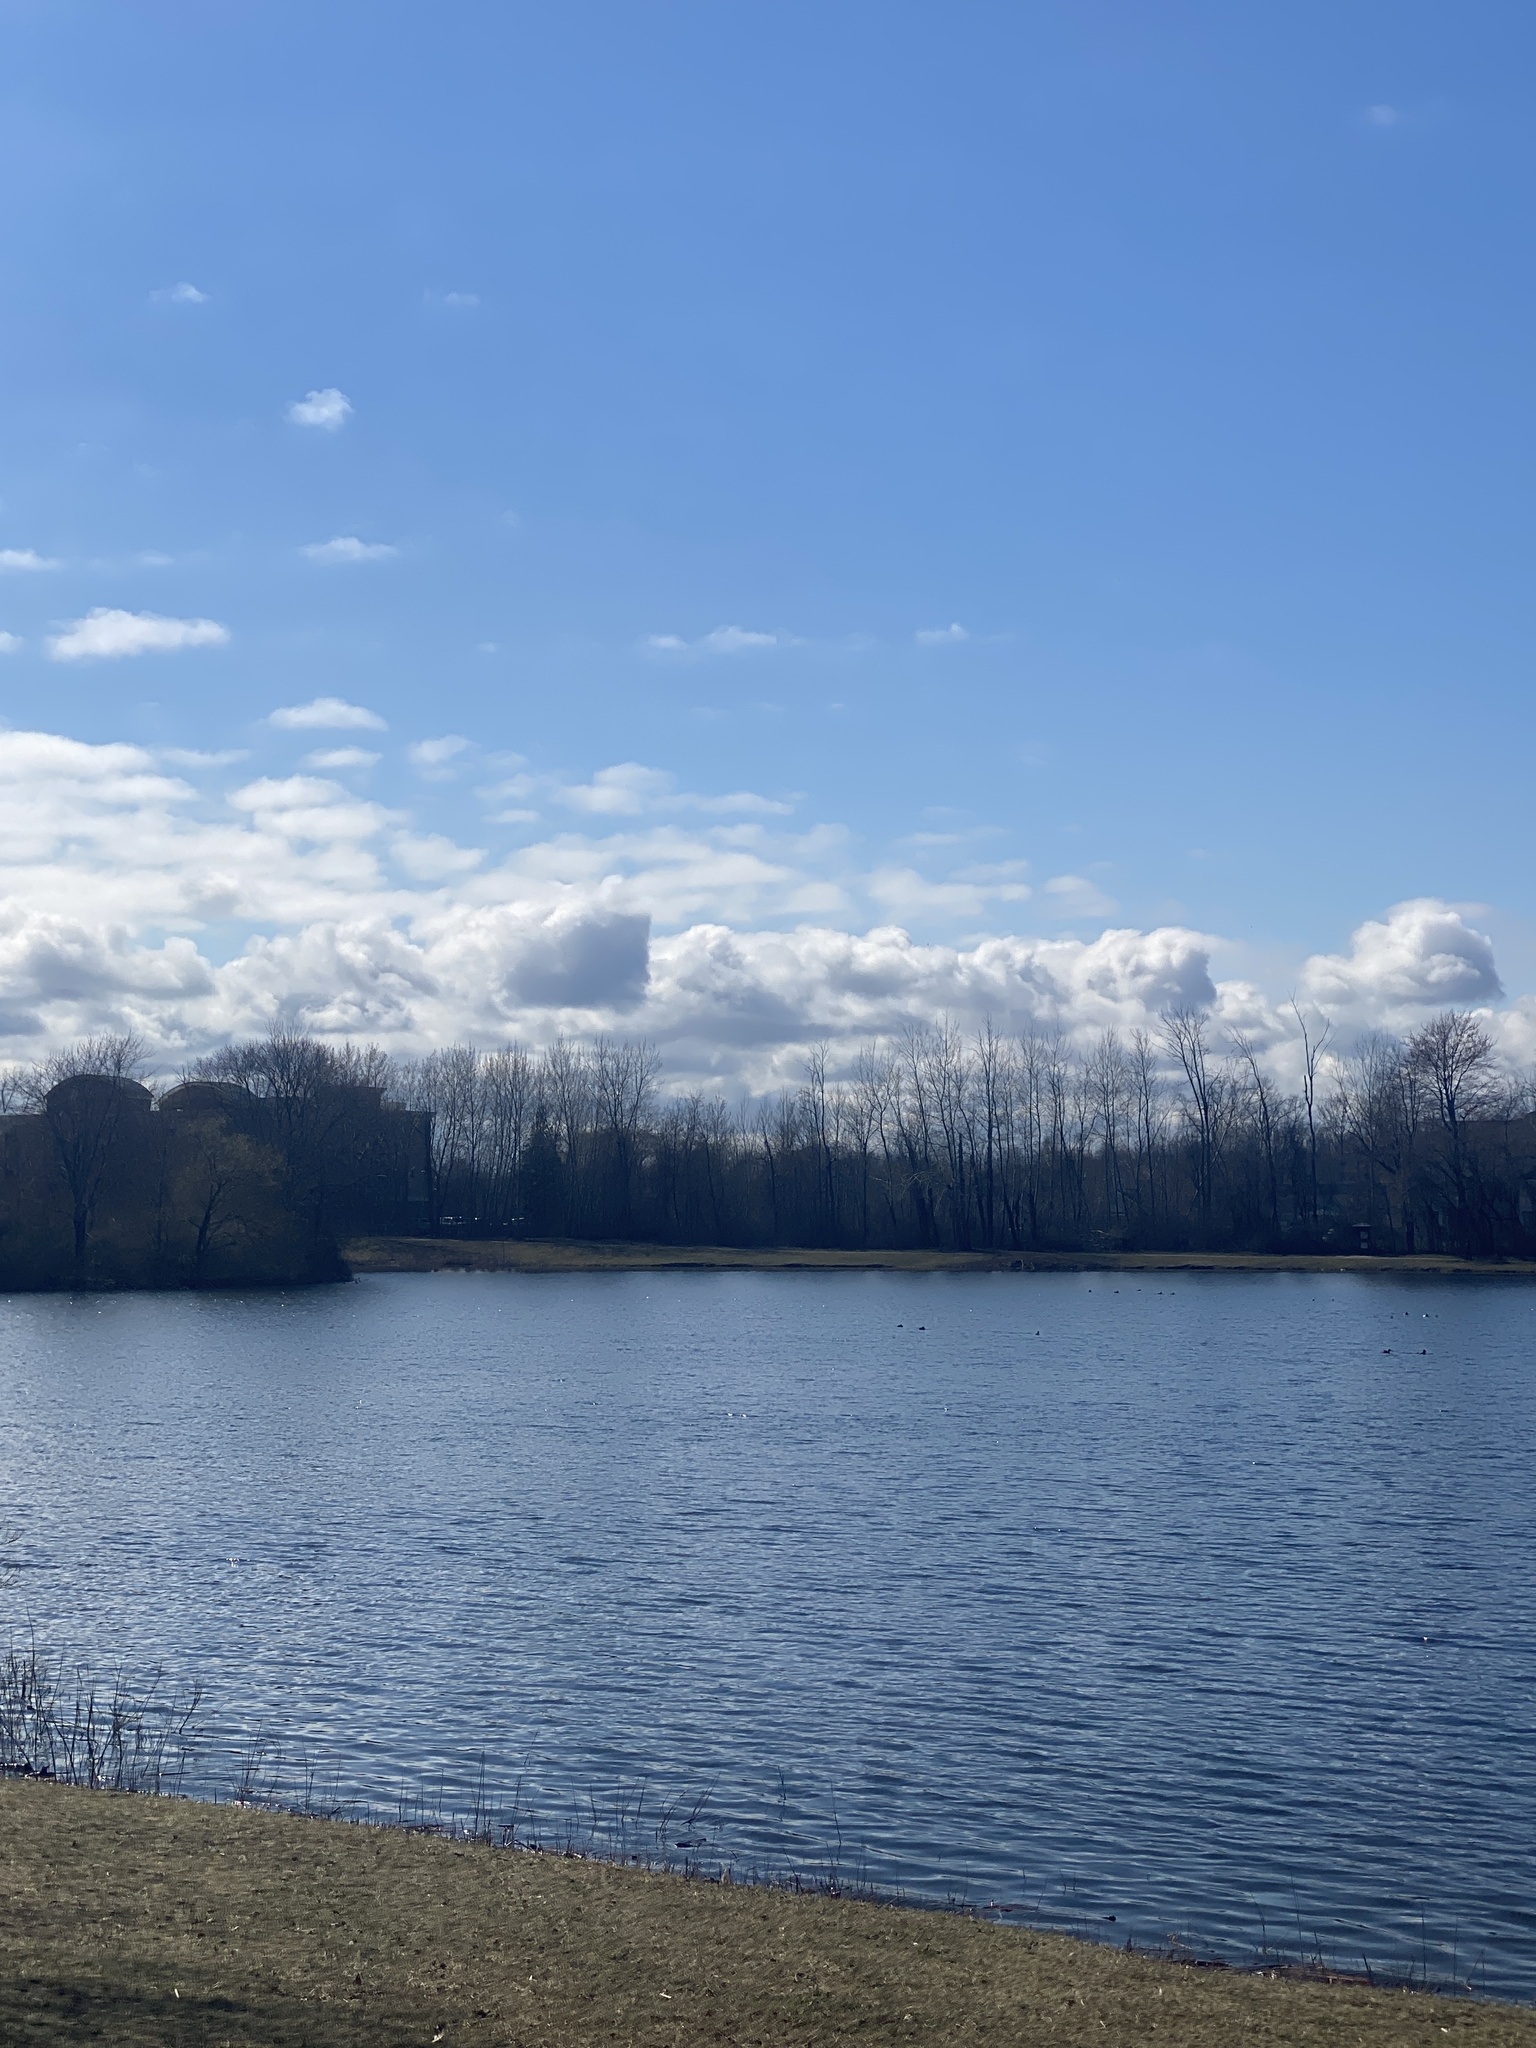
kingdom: Plantae
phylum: Tracheophyta
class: Liliopsida
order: Asparagales
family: Amaryllidaceae
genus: Allium
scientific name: Allium vineale
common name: Crow garlic
